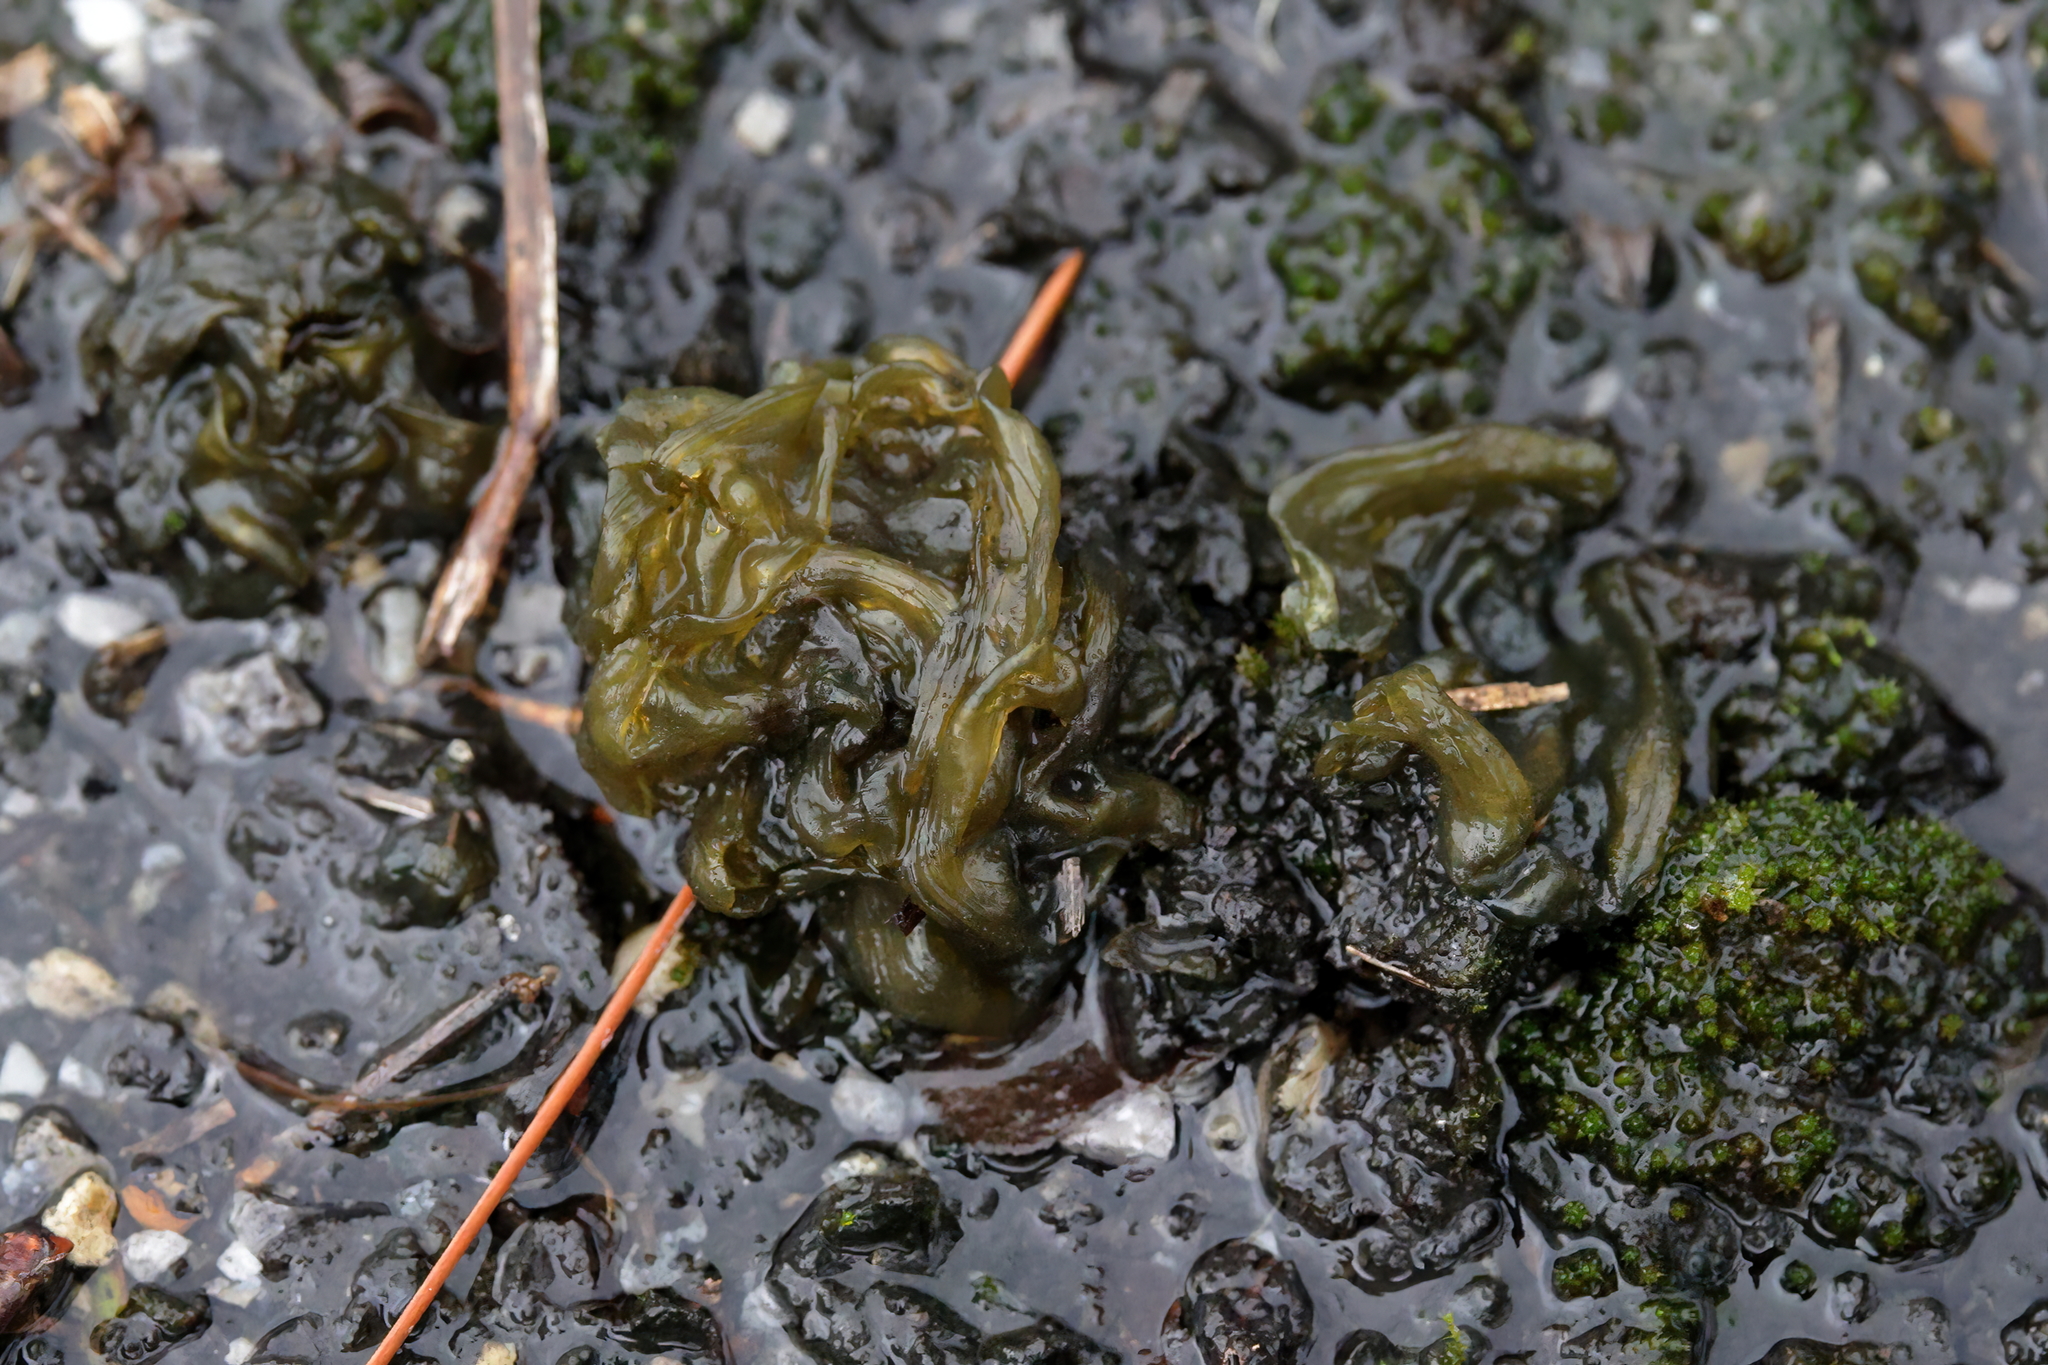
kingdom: Bacteria
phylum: Cyanobacteria
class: Cyanobacteriia
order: Cyanobacteriales
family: Nostocaceae
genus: Nostoc
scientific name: Nostoc commune
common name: Star jelly
